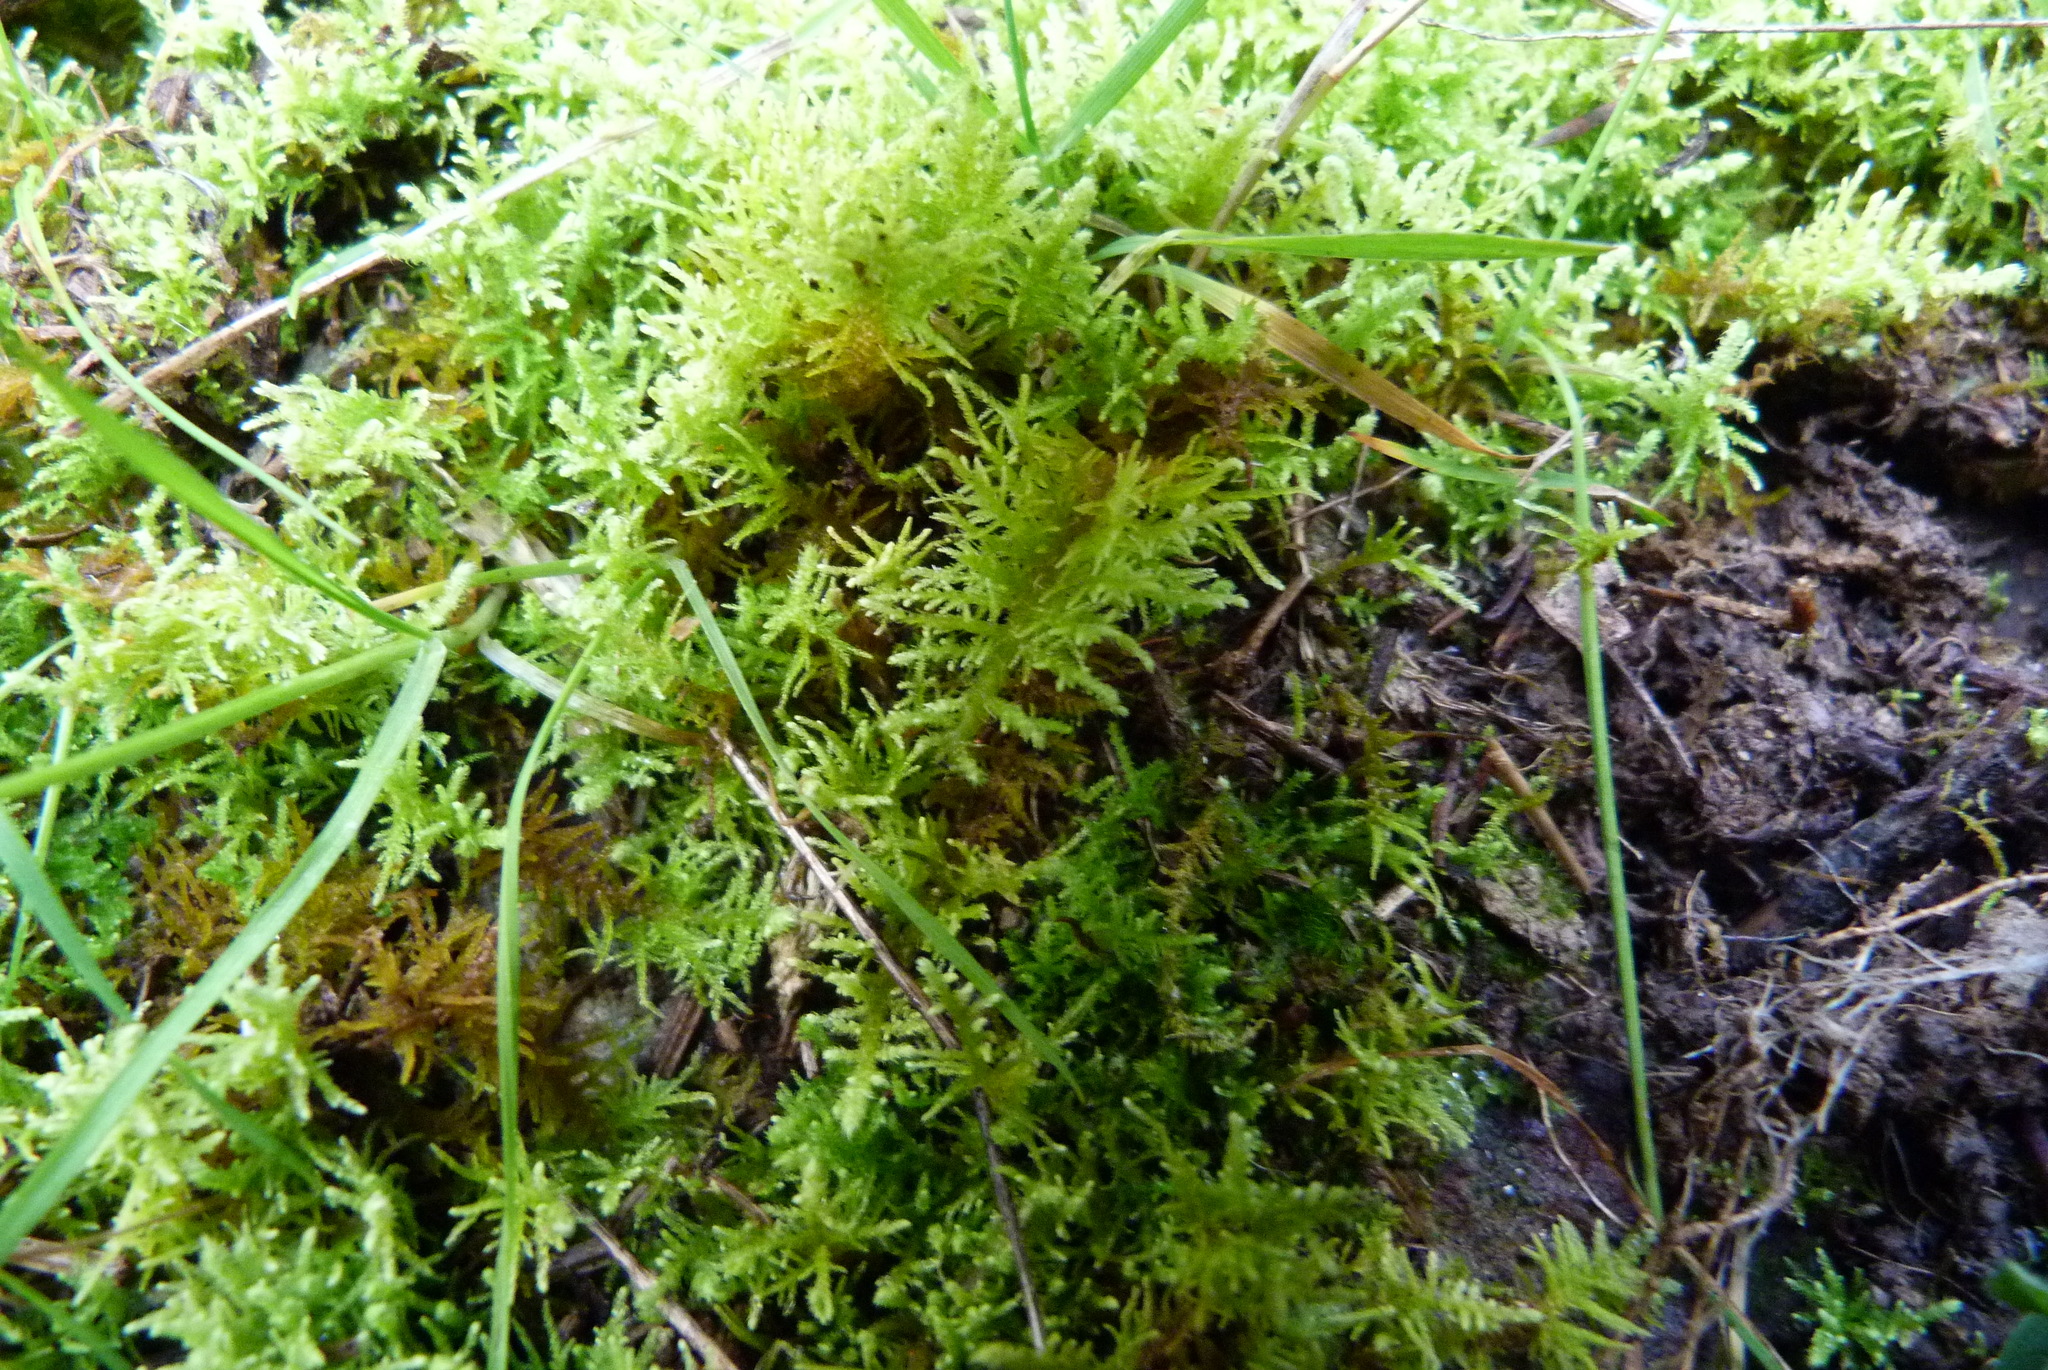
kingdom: Plantae
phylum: Bryophyta
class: Bryopsida
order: Hypnales
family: Thuidiaceae
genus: Thuidiopsis
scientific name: Thuidiopsis furfurosa
